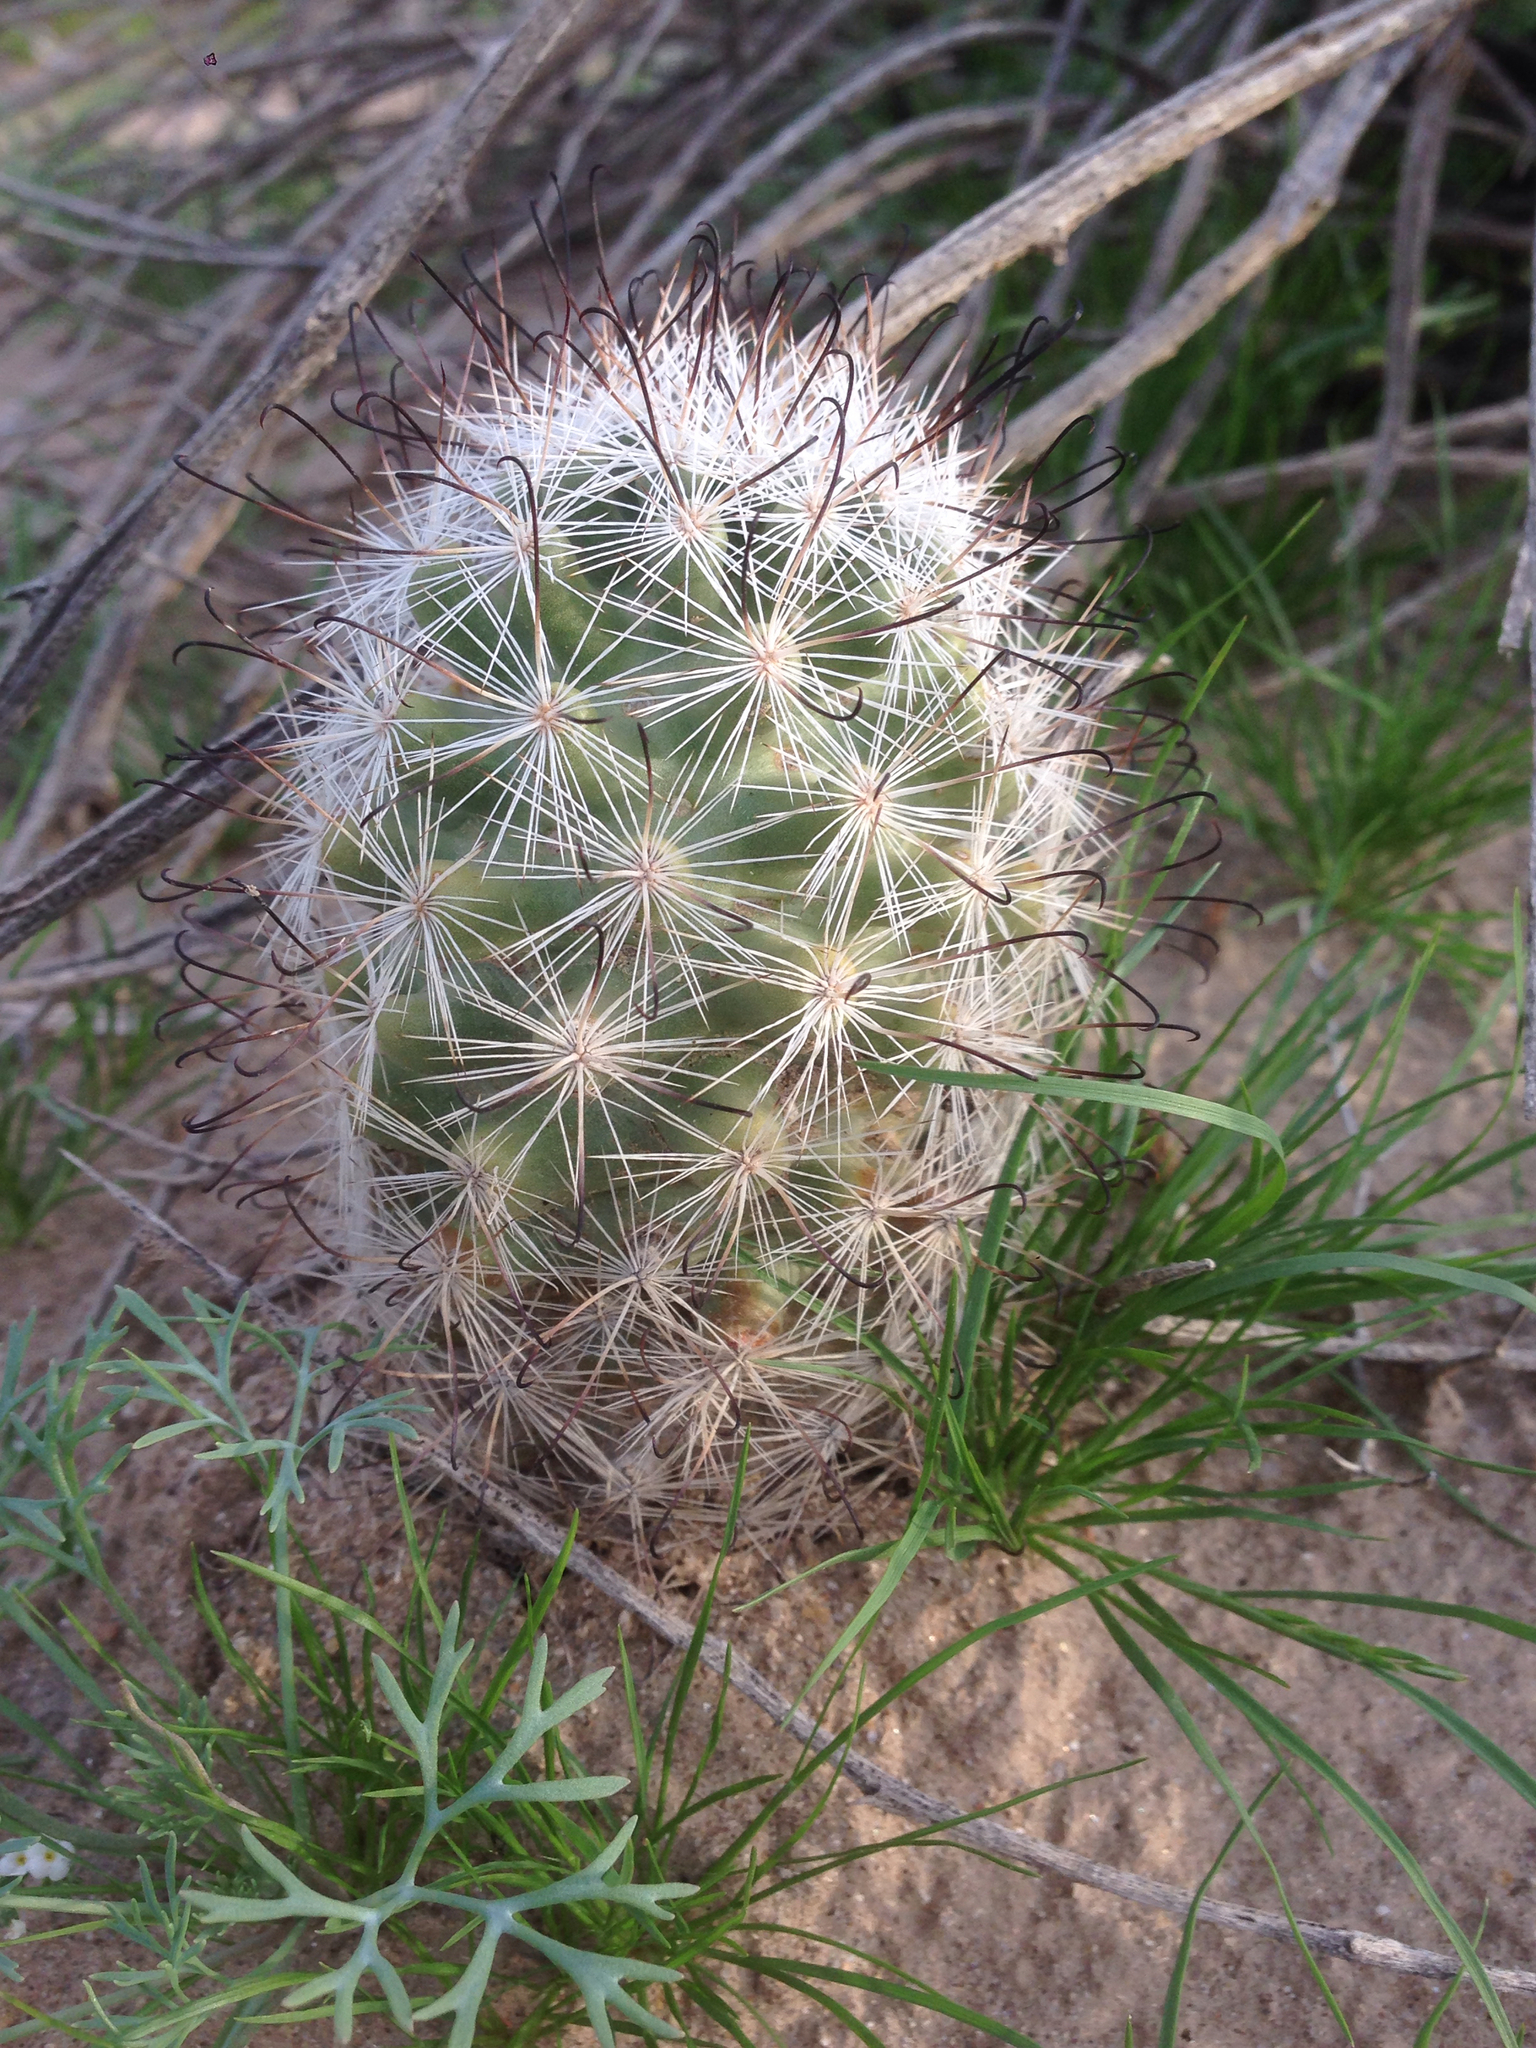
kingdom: Plantae
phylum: Tracheophyta
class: Magnoliopsida
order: Caryophyllales
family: Cactaceae
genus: Cochemiea
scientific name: Cochemiea tetrancistra
